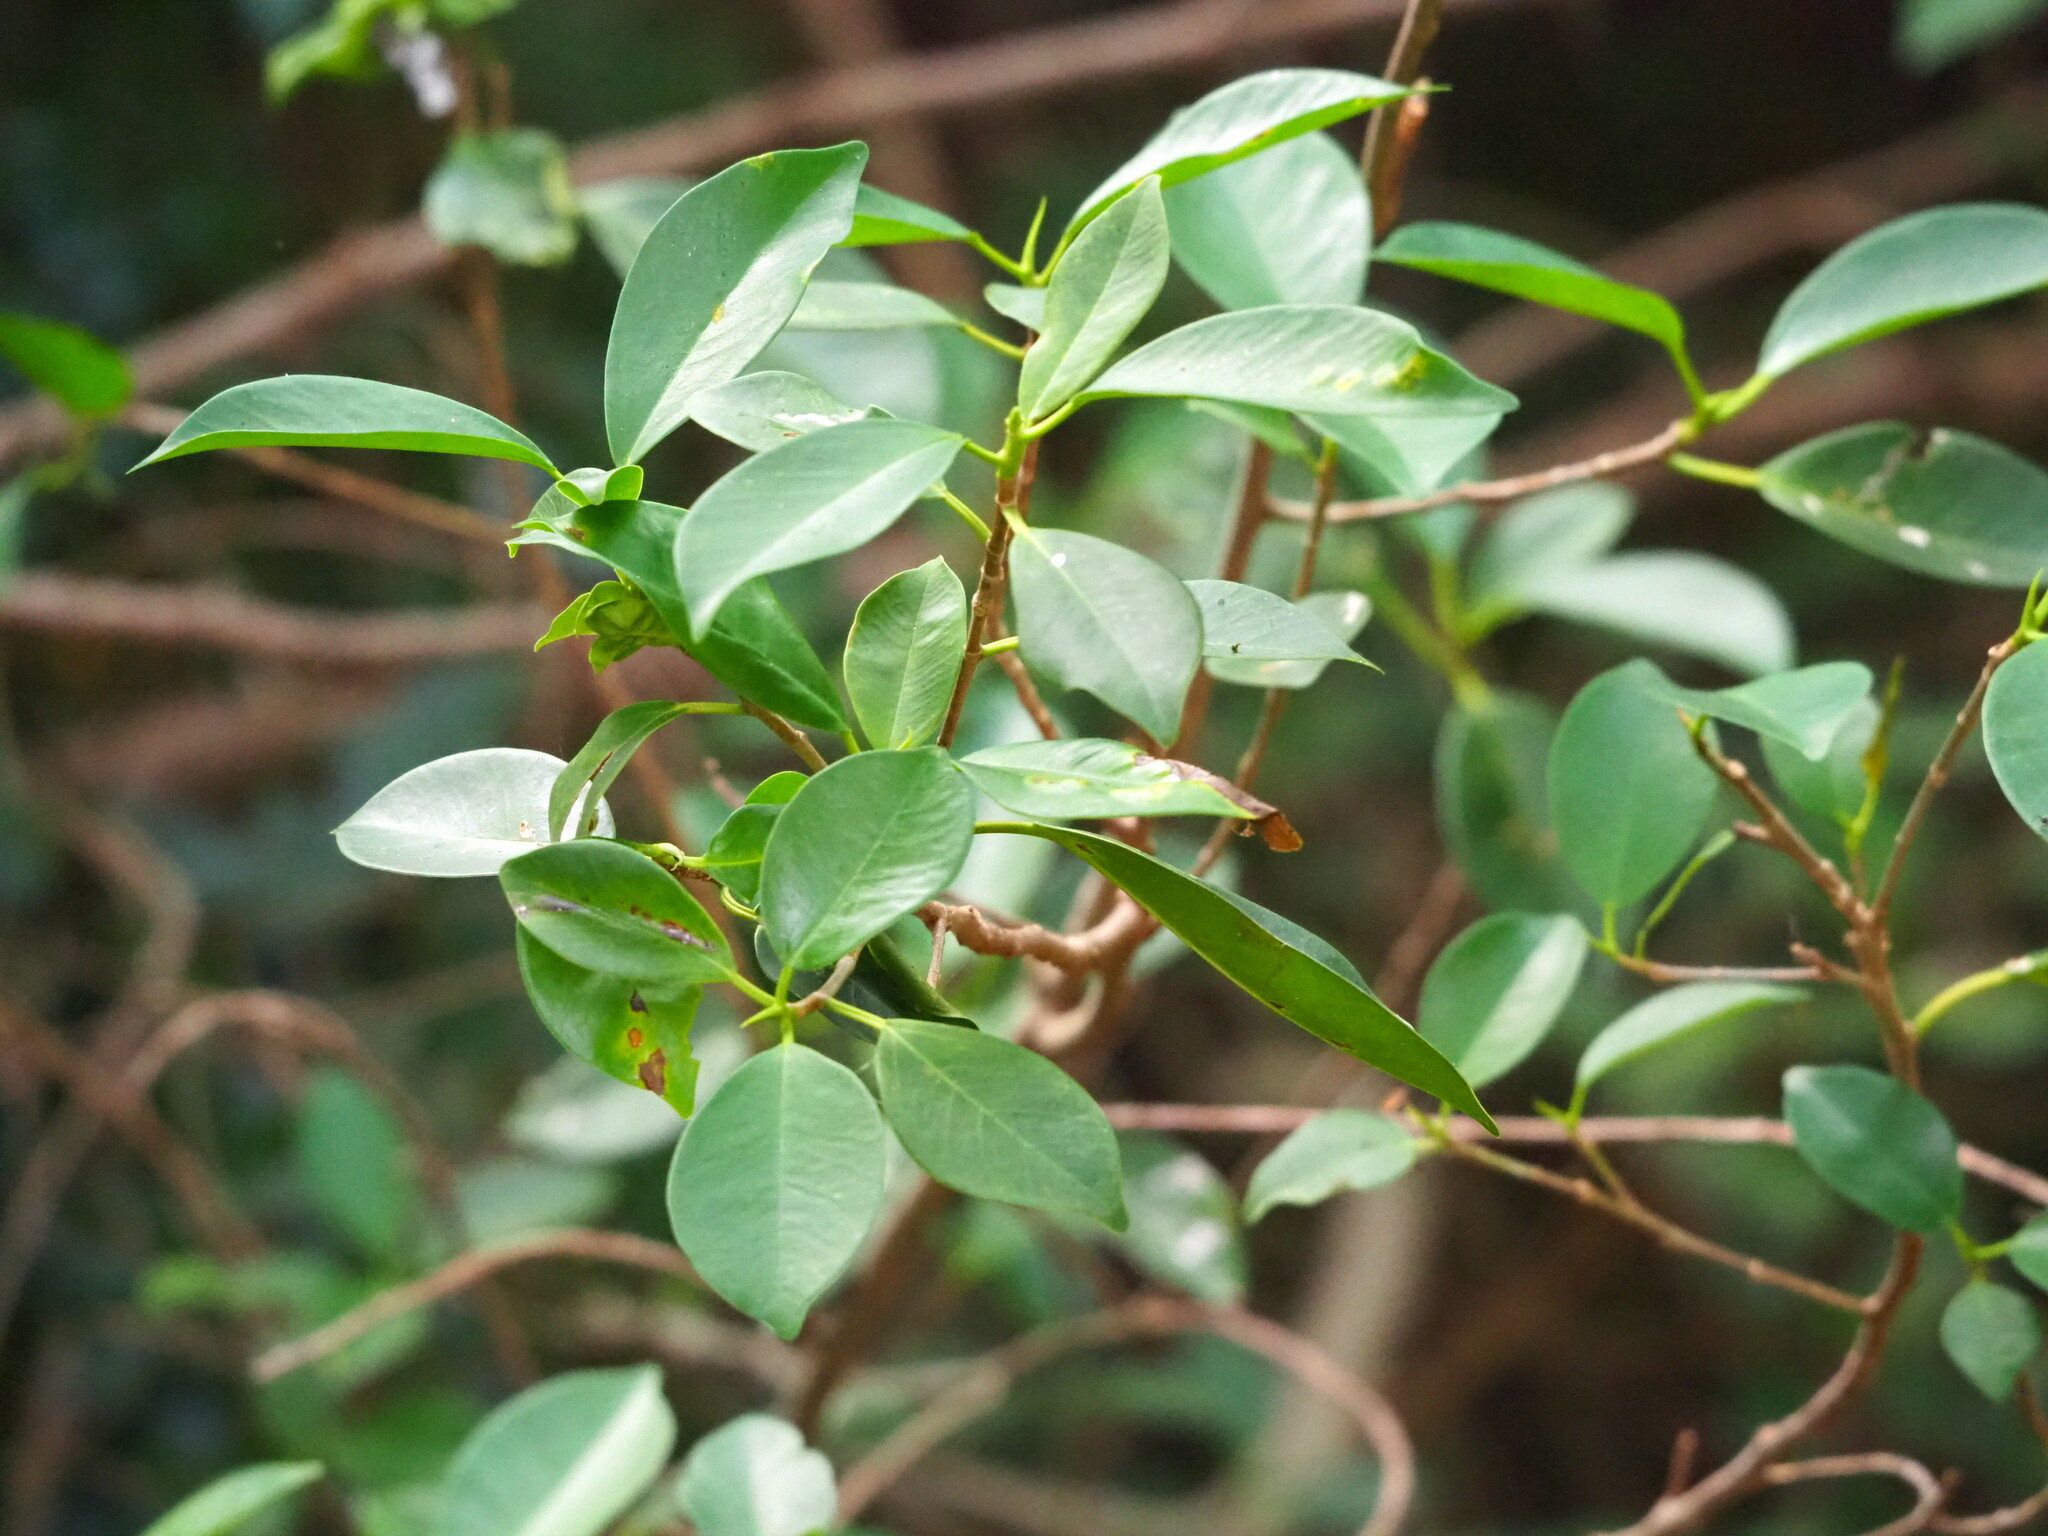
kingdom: Plantae
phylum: Tracheophyta
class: Magnoliopsida
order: Rosales
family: Moraceae
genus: Ficus
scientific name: Ficus microcarpa
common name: Chinese banyan
